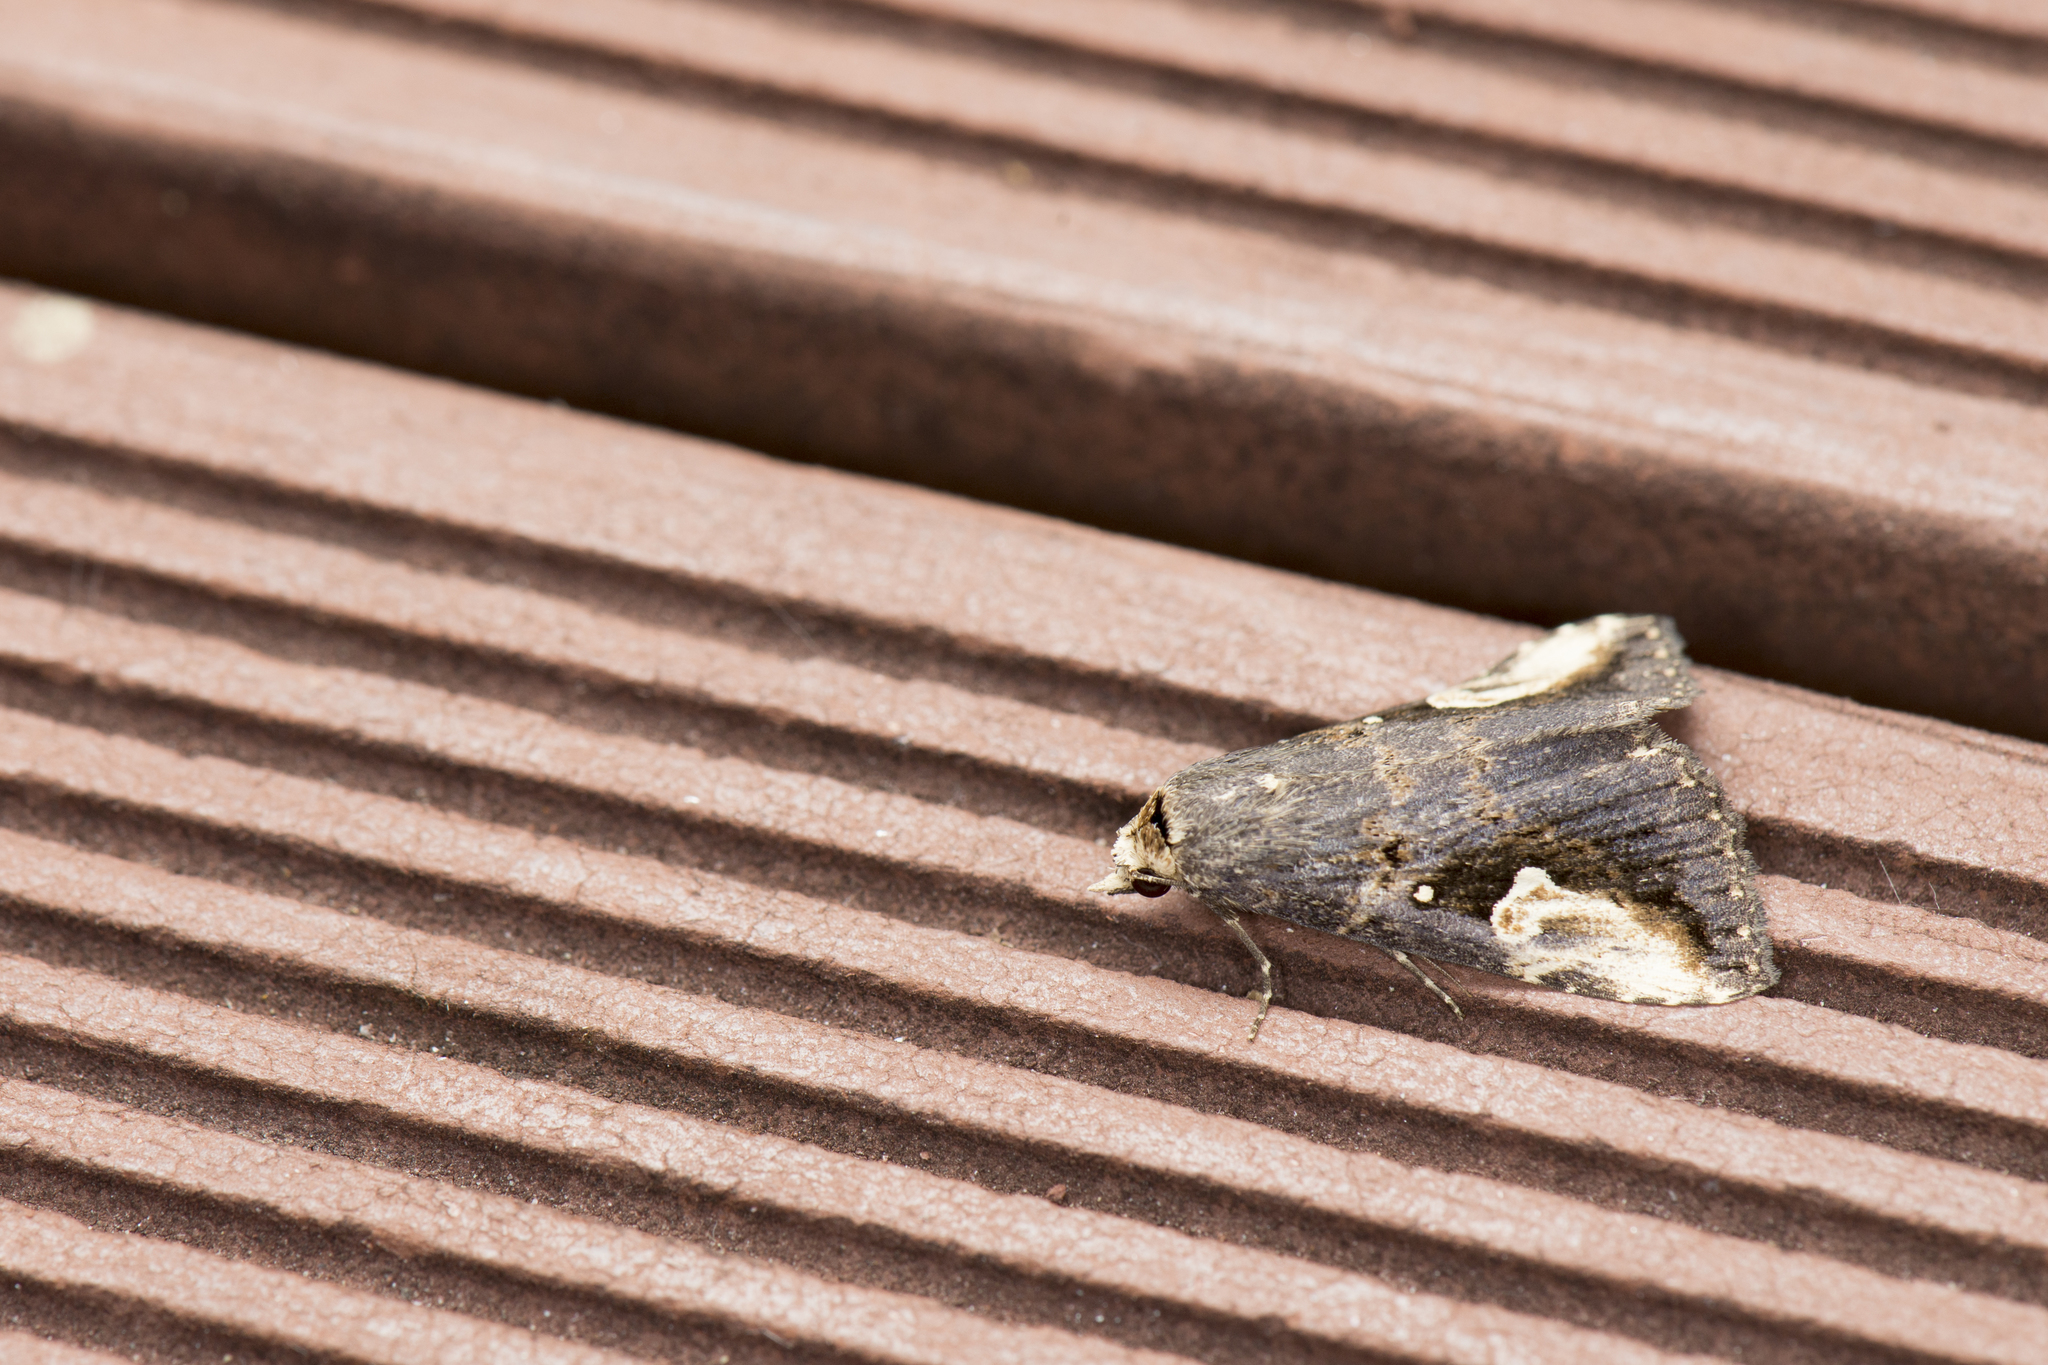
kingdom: Animalia
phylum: Arthropoda
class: Insecta
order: Lepidoptera
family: Erebidae
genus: Pseudosphetta
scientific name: Pseudosphetta moorei
